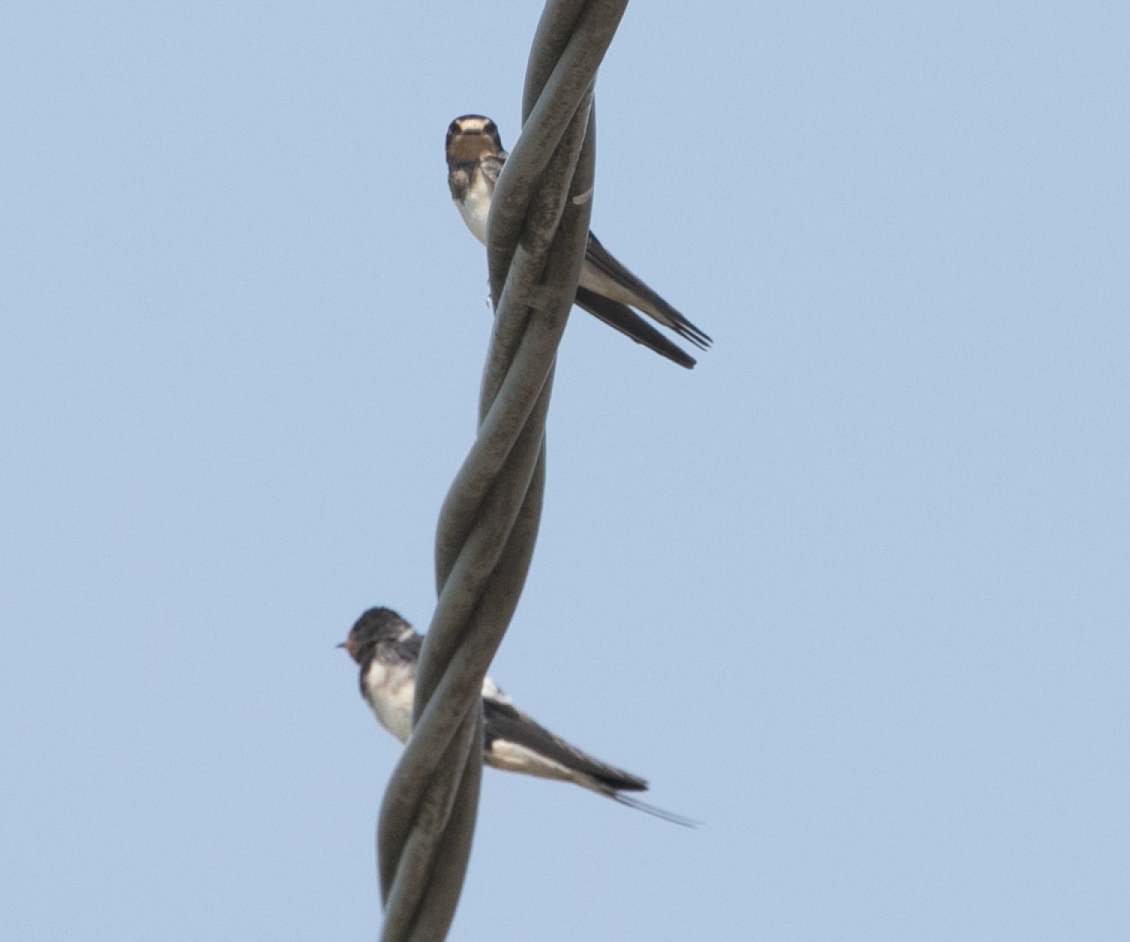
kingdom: Animalia
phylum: Chordata
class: Aves
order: Passeriformes
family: Hirundinidae
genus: Hirundo
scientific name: Hirundo rustica
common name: Barn swallow
